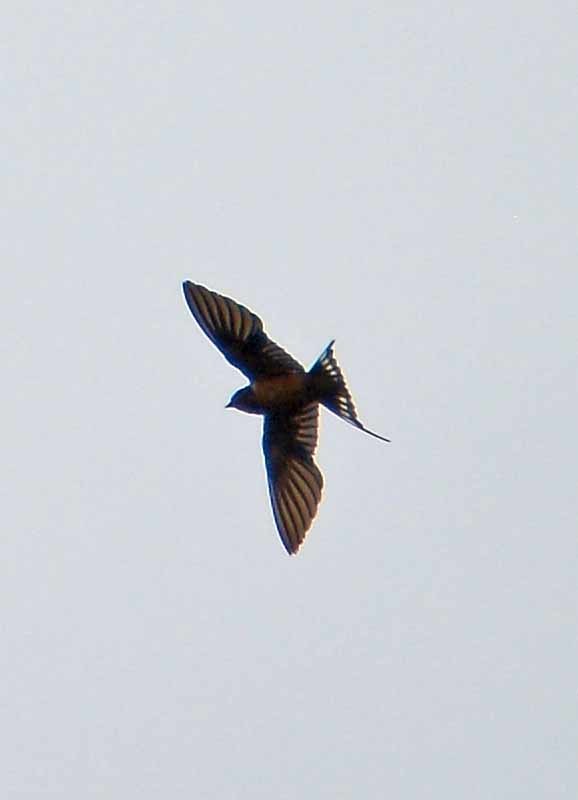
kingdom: Animalia
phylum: Chordata
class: Aves
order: Passeriformes
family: Hirundinidae
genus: Hirundo
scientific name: Hirundo rustica
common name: Barn swallow
